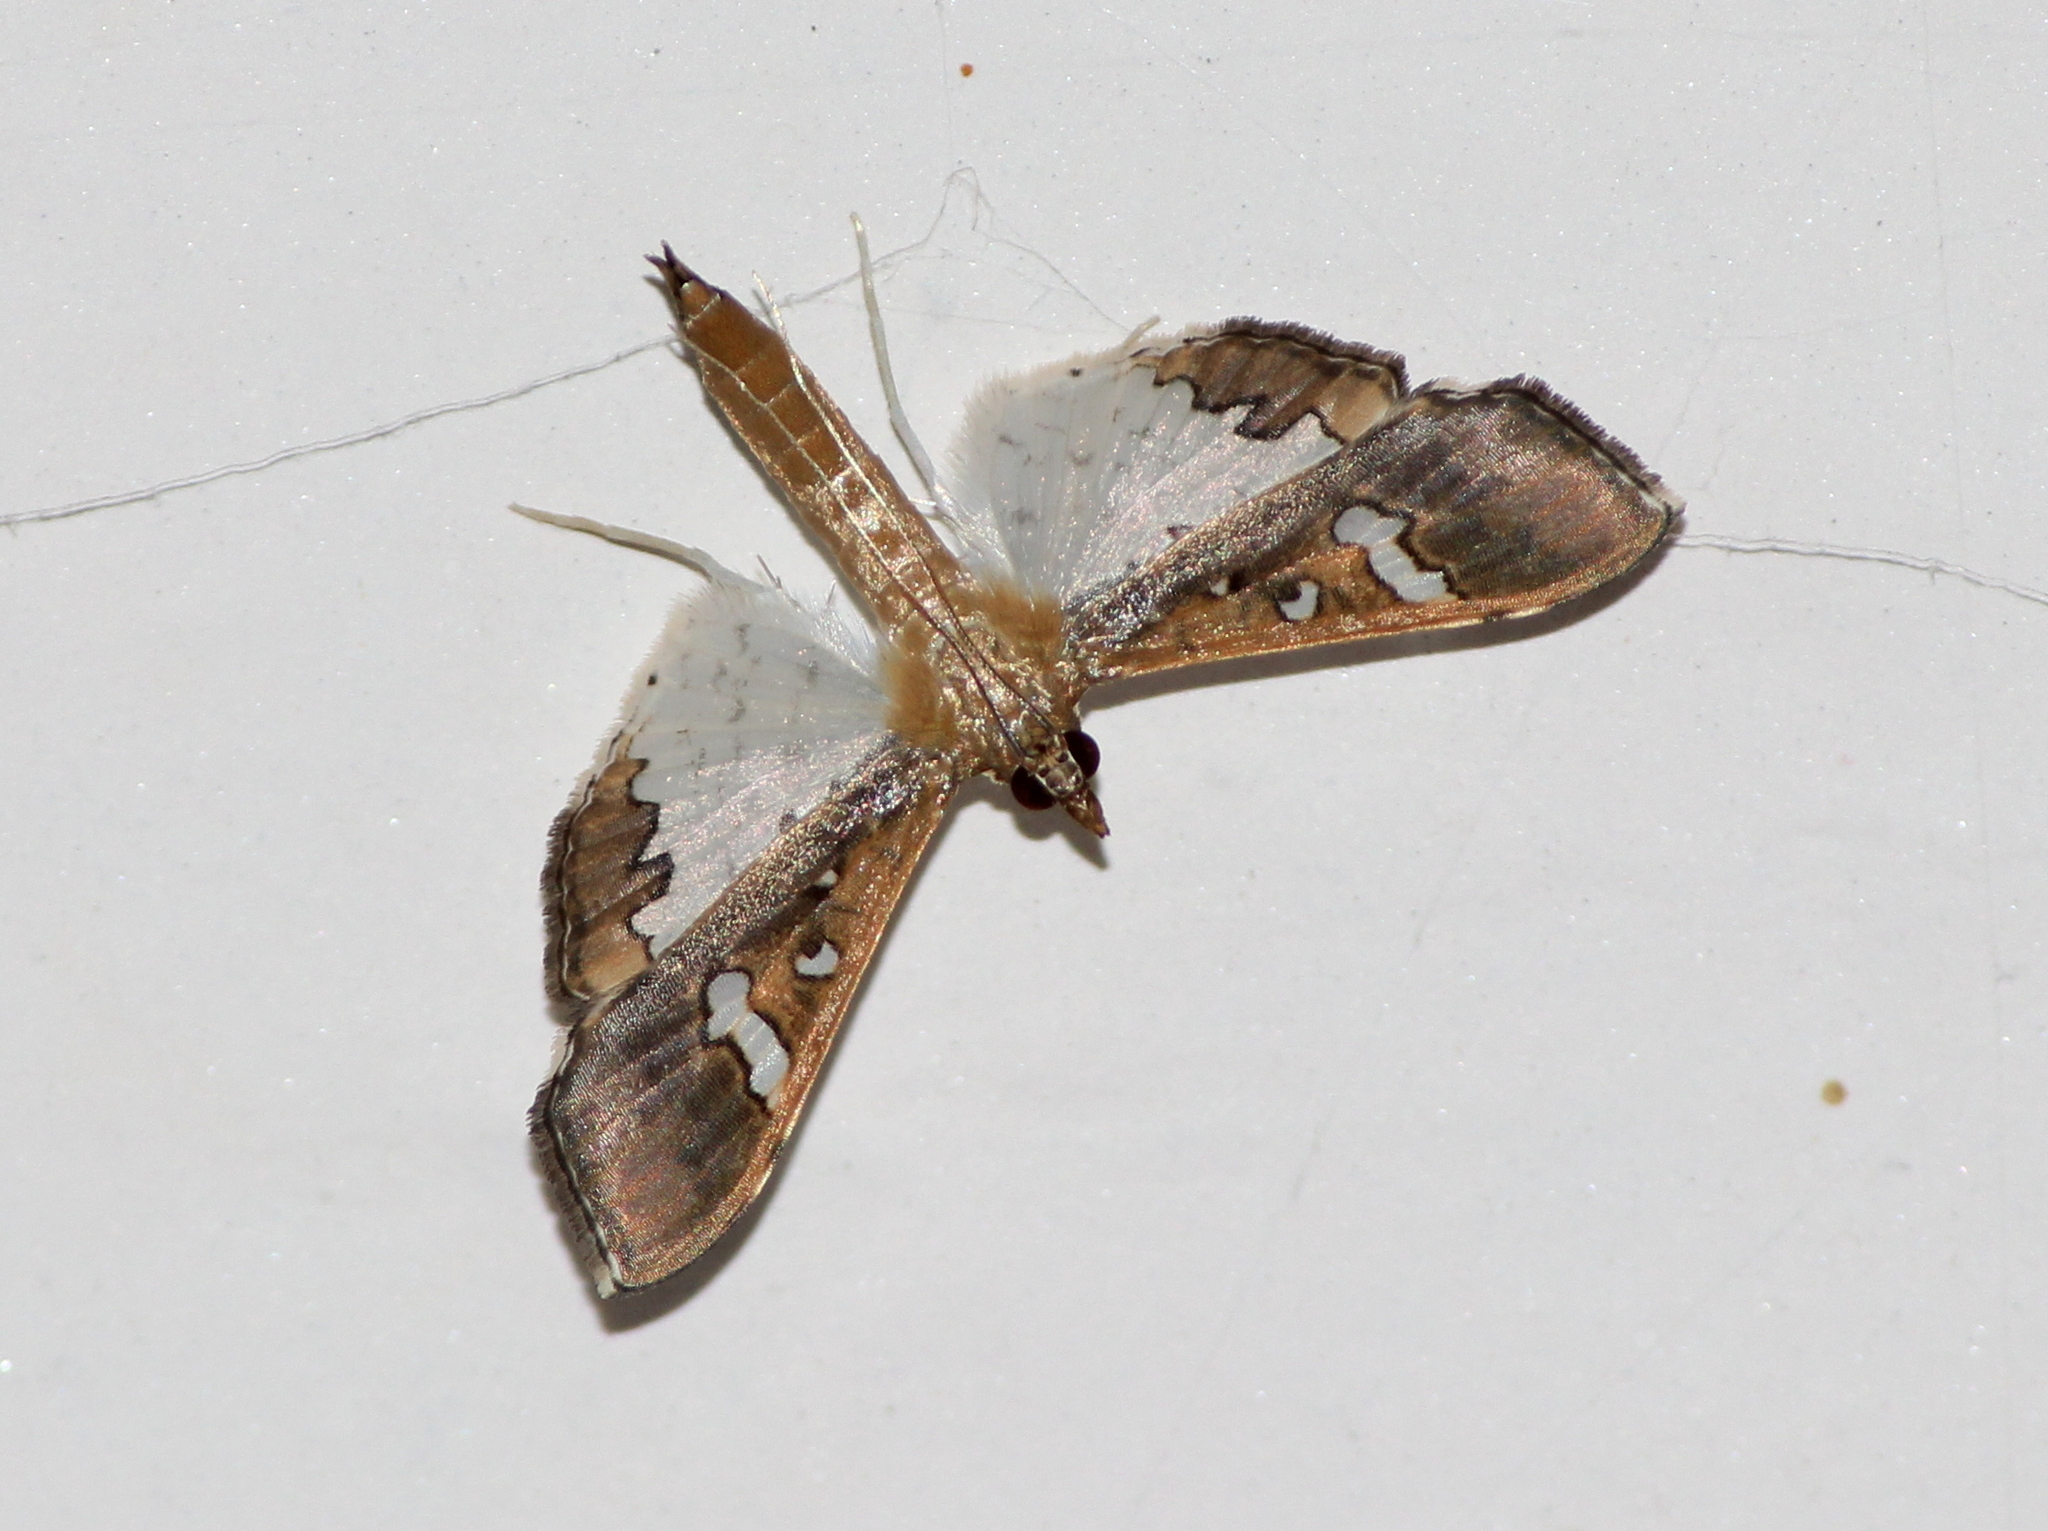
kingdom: Animalia
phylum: Arthropoda
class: Insecta
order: Lepidoptera
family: Crambidae
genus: Maruca
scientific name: Maruca vitrata
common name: Maruca pod borer
